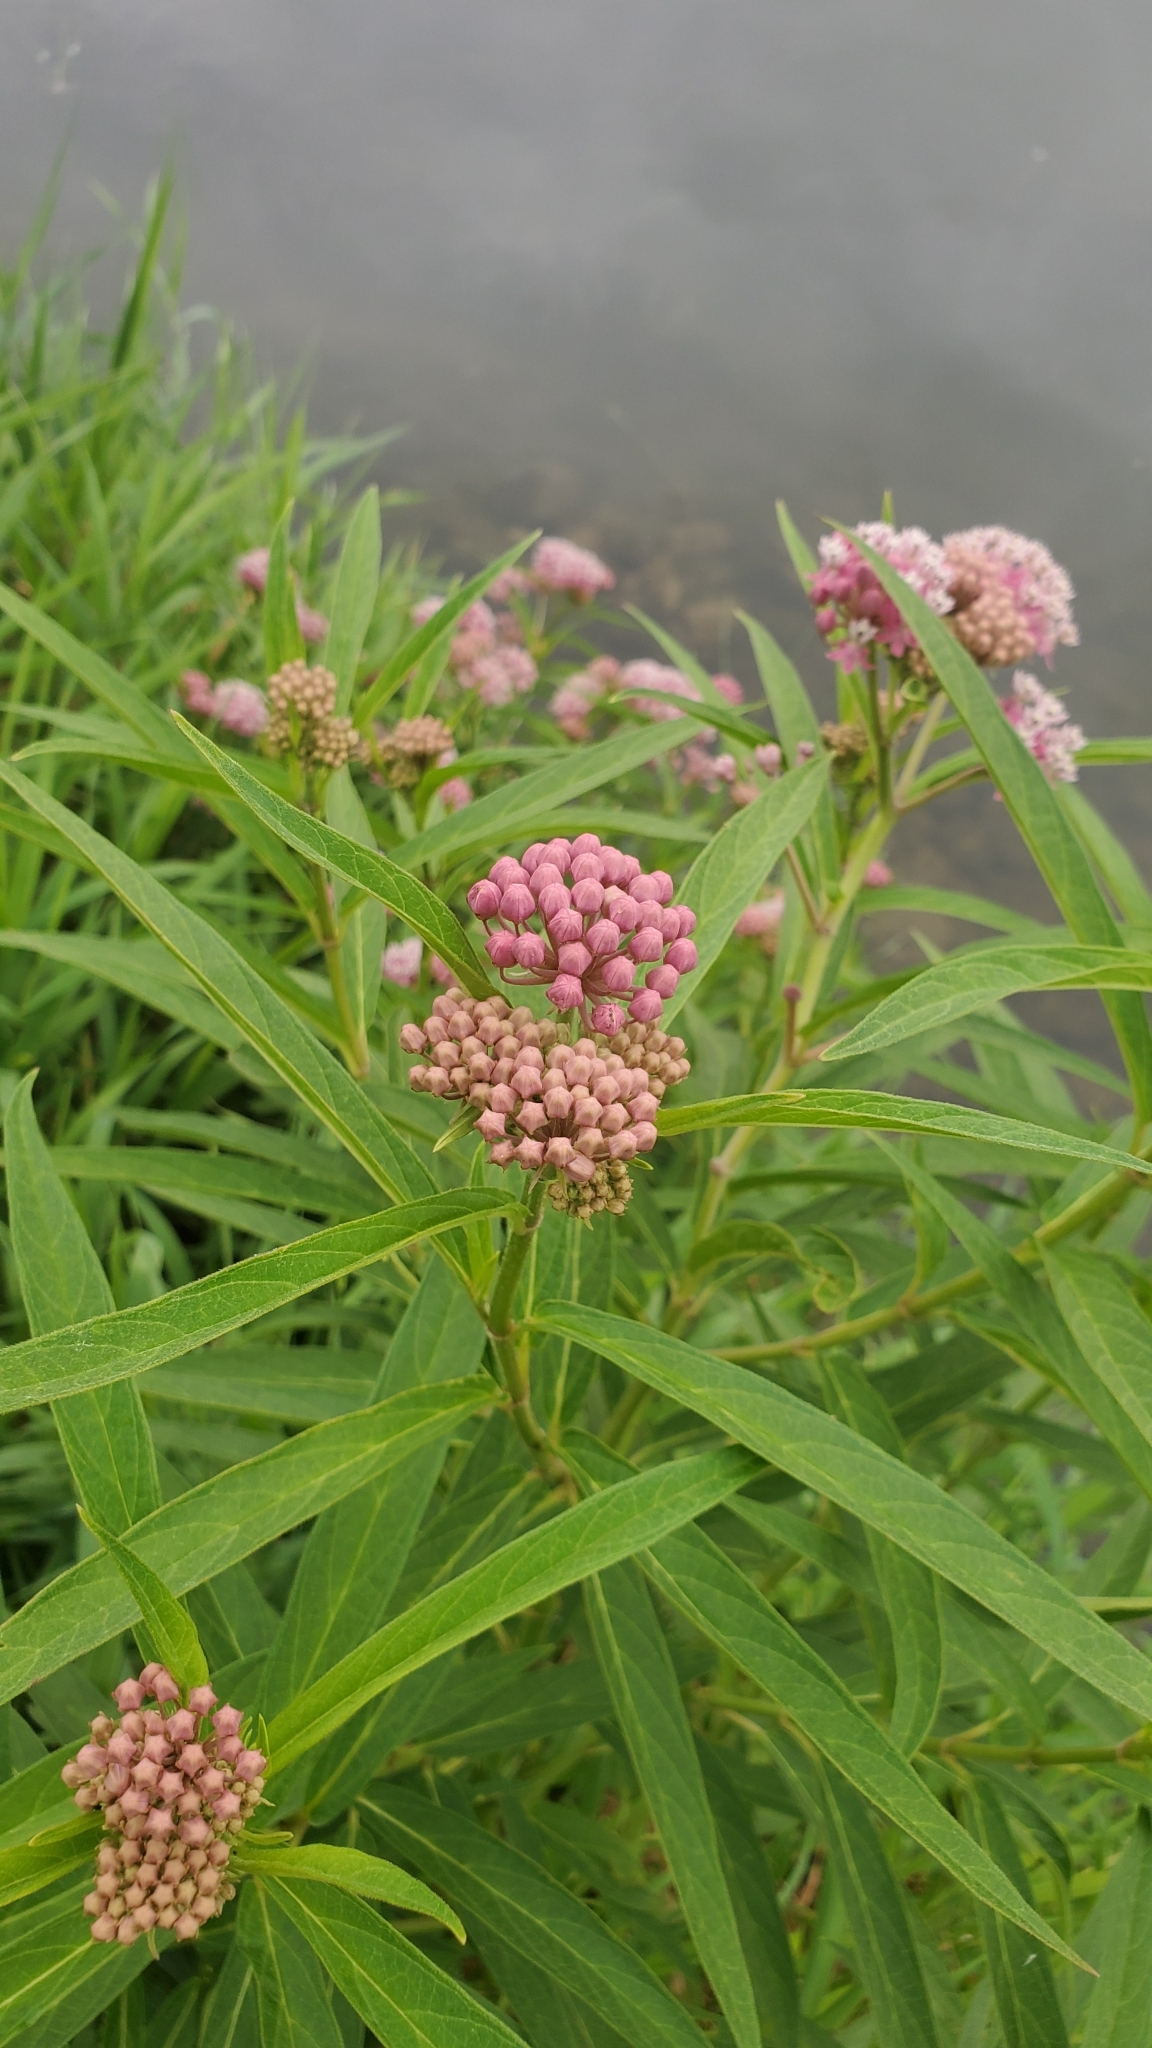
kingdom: Plantae
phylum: Tracheophyta
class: Magnoliopsida
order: Gentianales
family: Apocynaceae
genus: Asclepias
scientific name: Asclepias incarnata
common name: Swamp milkweed
